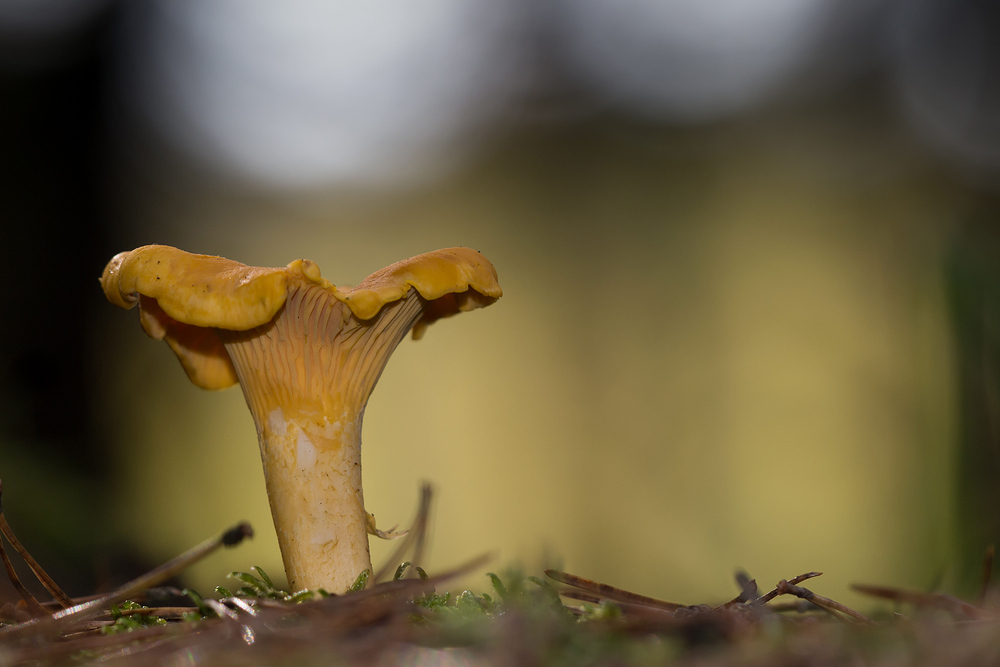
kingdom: Fungi
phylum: Basidiomycota
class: Agaricomycetes
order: Cantharellales
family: Hydnaceae
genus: Cantharellus
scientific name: Cantharellus cibarius
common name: Chanterelle
